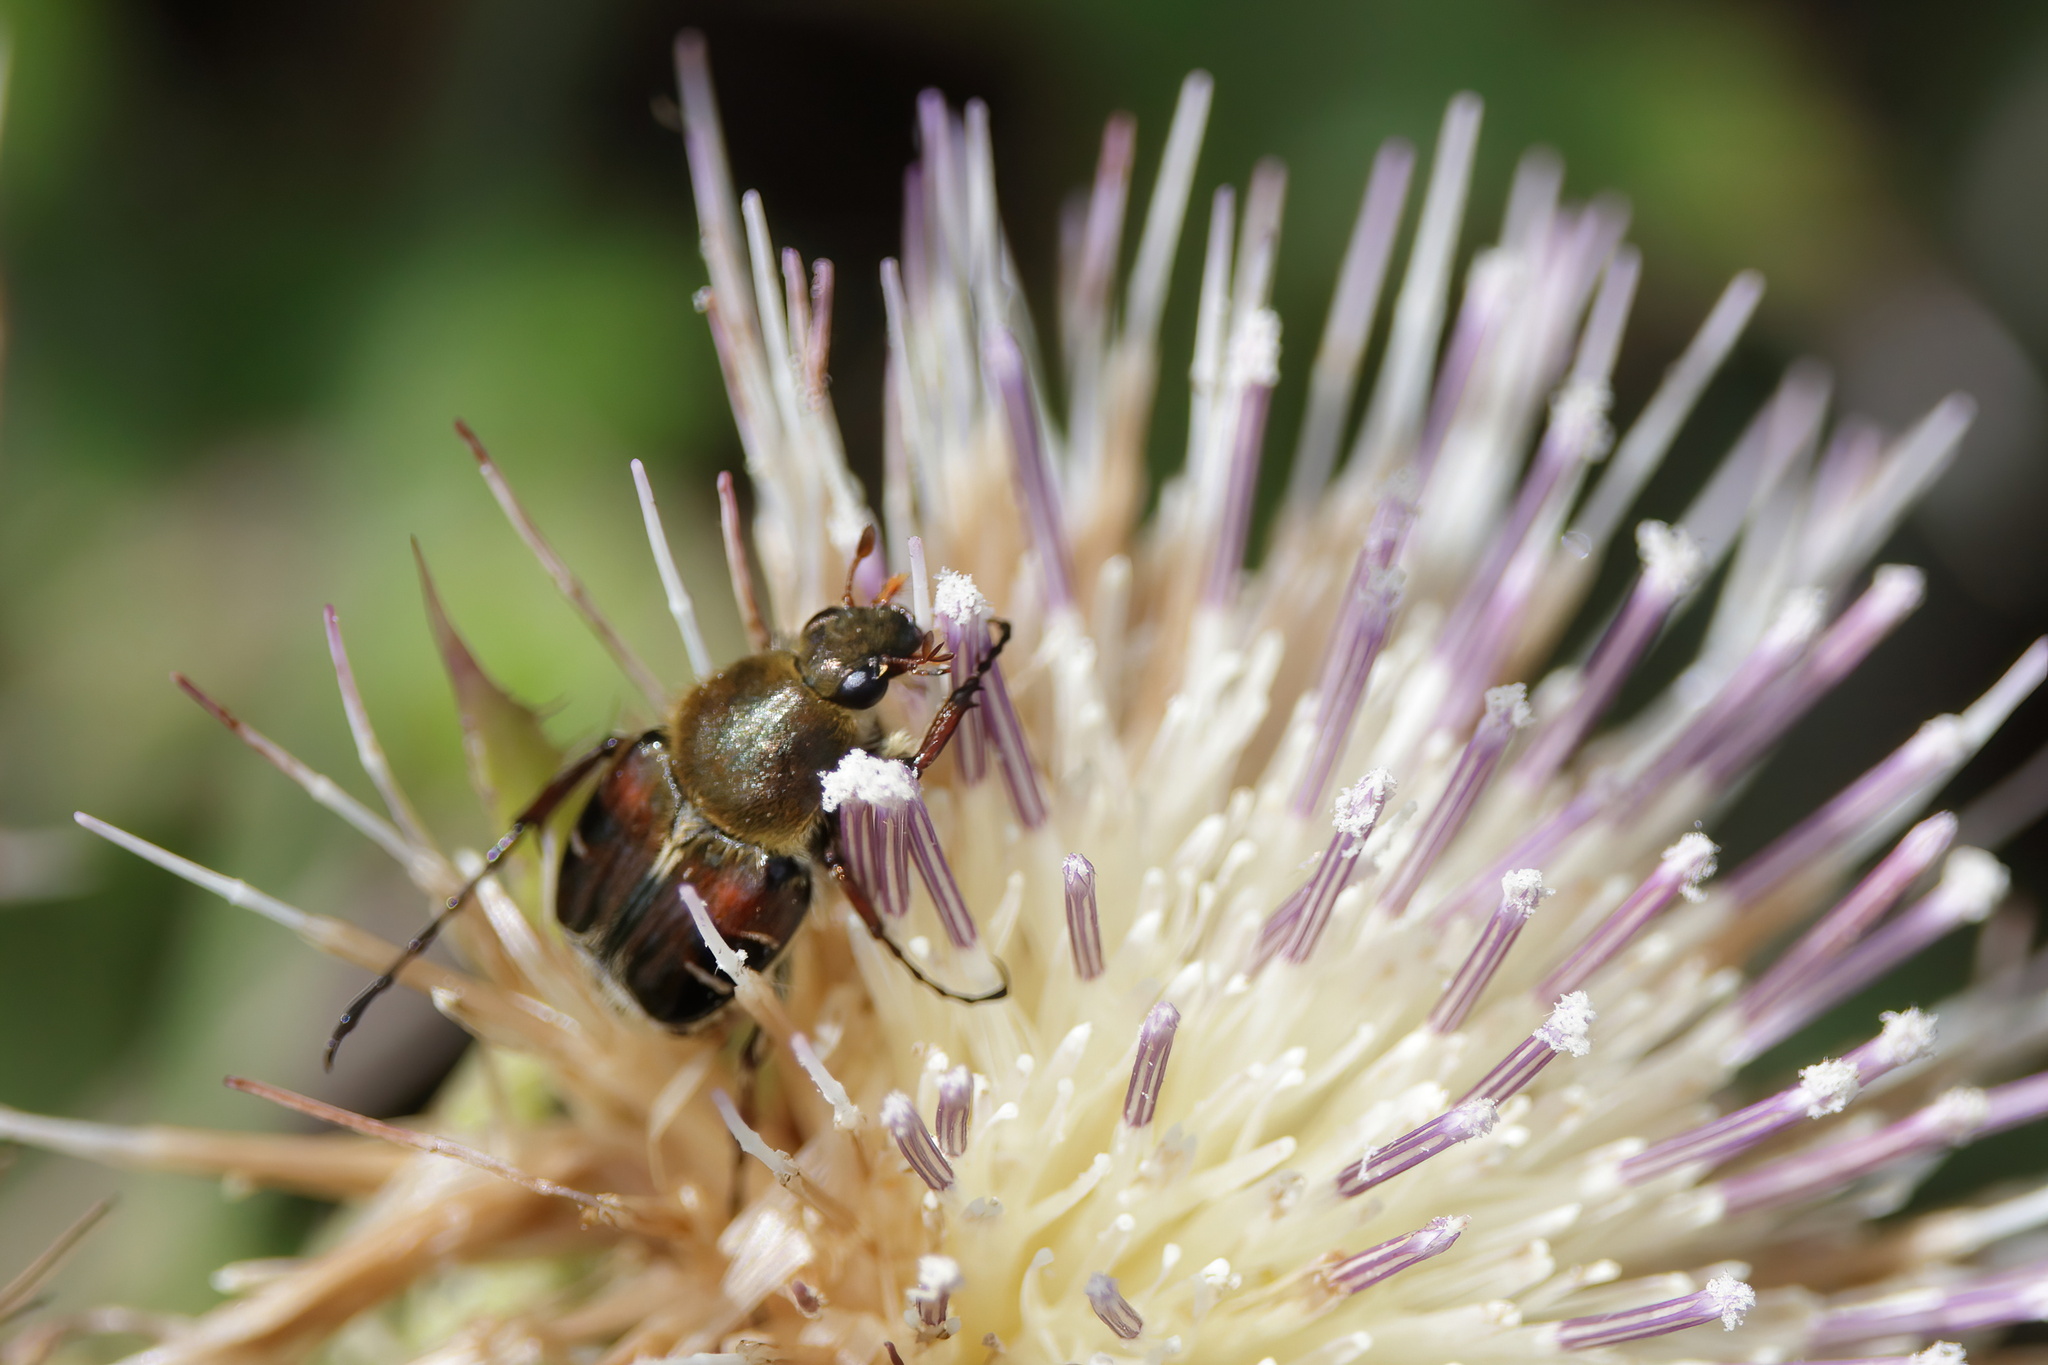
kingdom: Animalia
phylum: Arthropoda
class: Insecta
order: Coleoptera
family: Scarabaeidae
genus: Trichiotinus
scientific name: Trichiotinus piger
